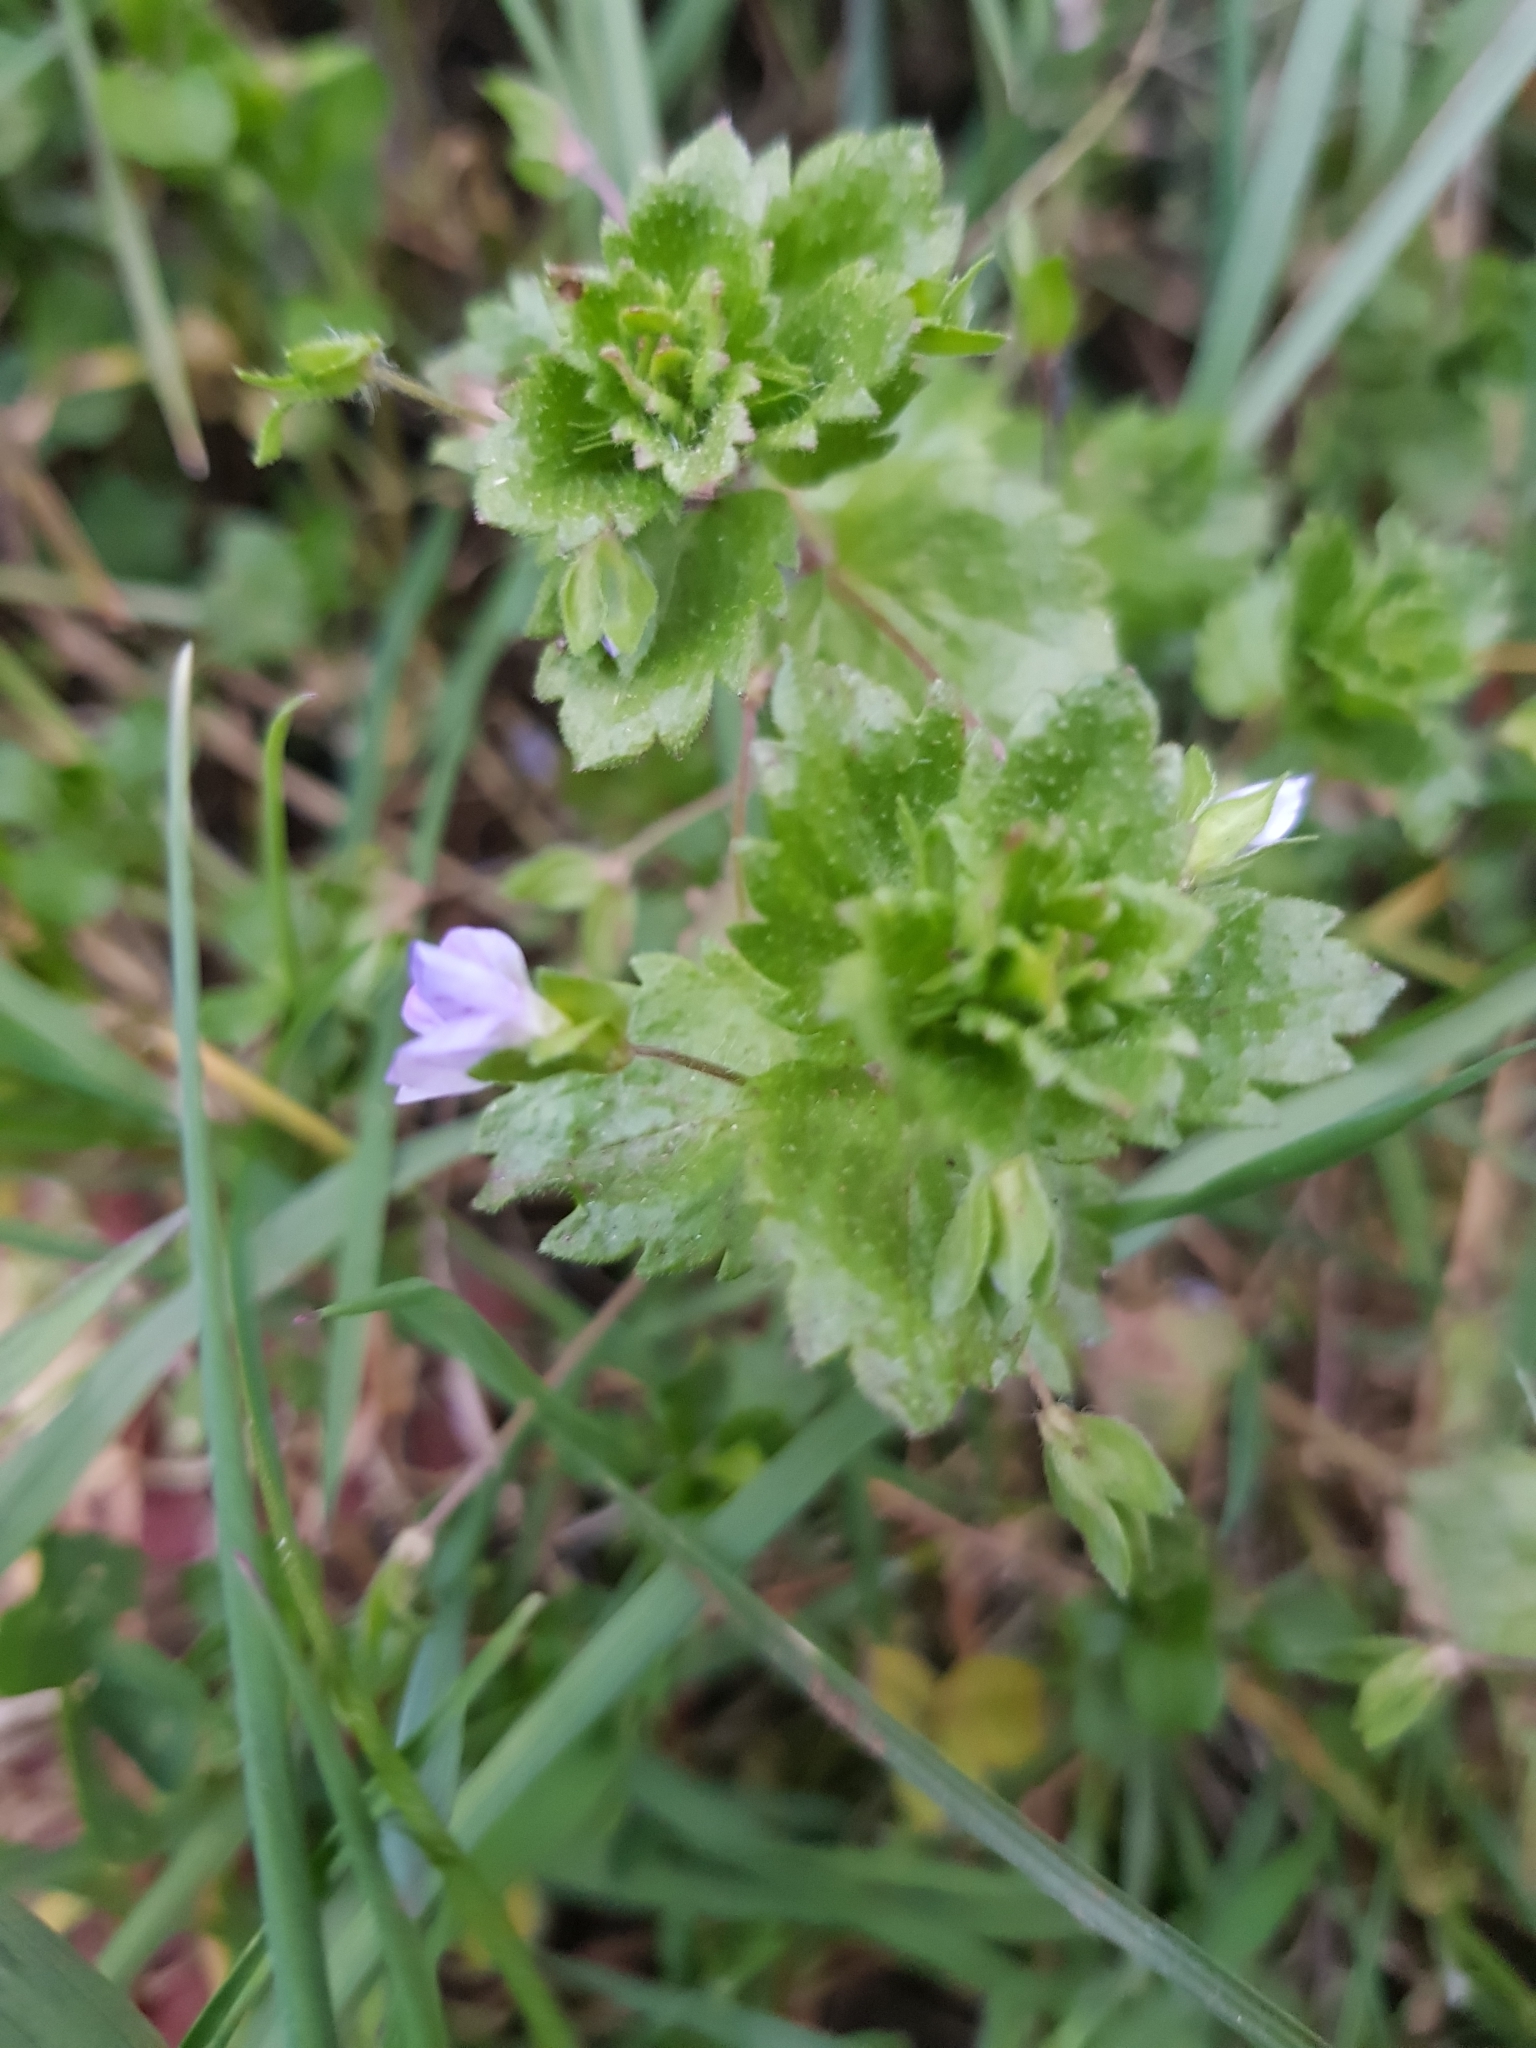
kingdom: Plantae
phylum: Tracheophyta
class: Magnoliopsida
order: Lamiales
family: Plantaginaceae
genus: Veronica
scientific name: Veronica persica
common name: Common field-speedwell
